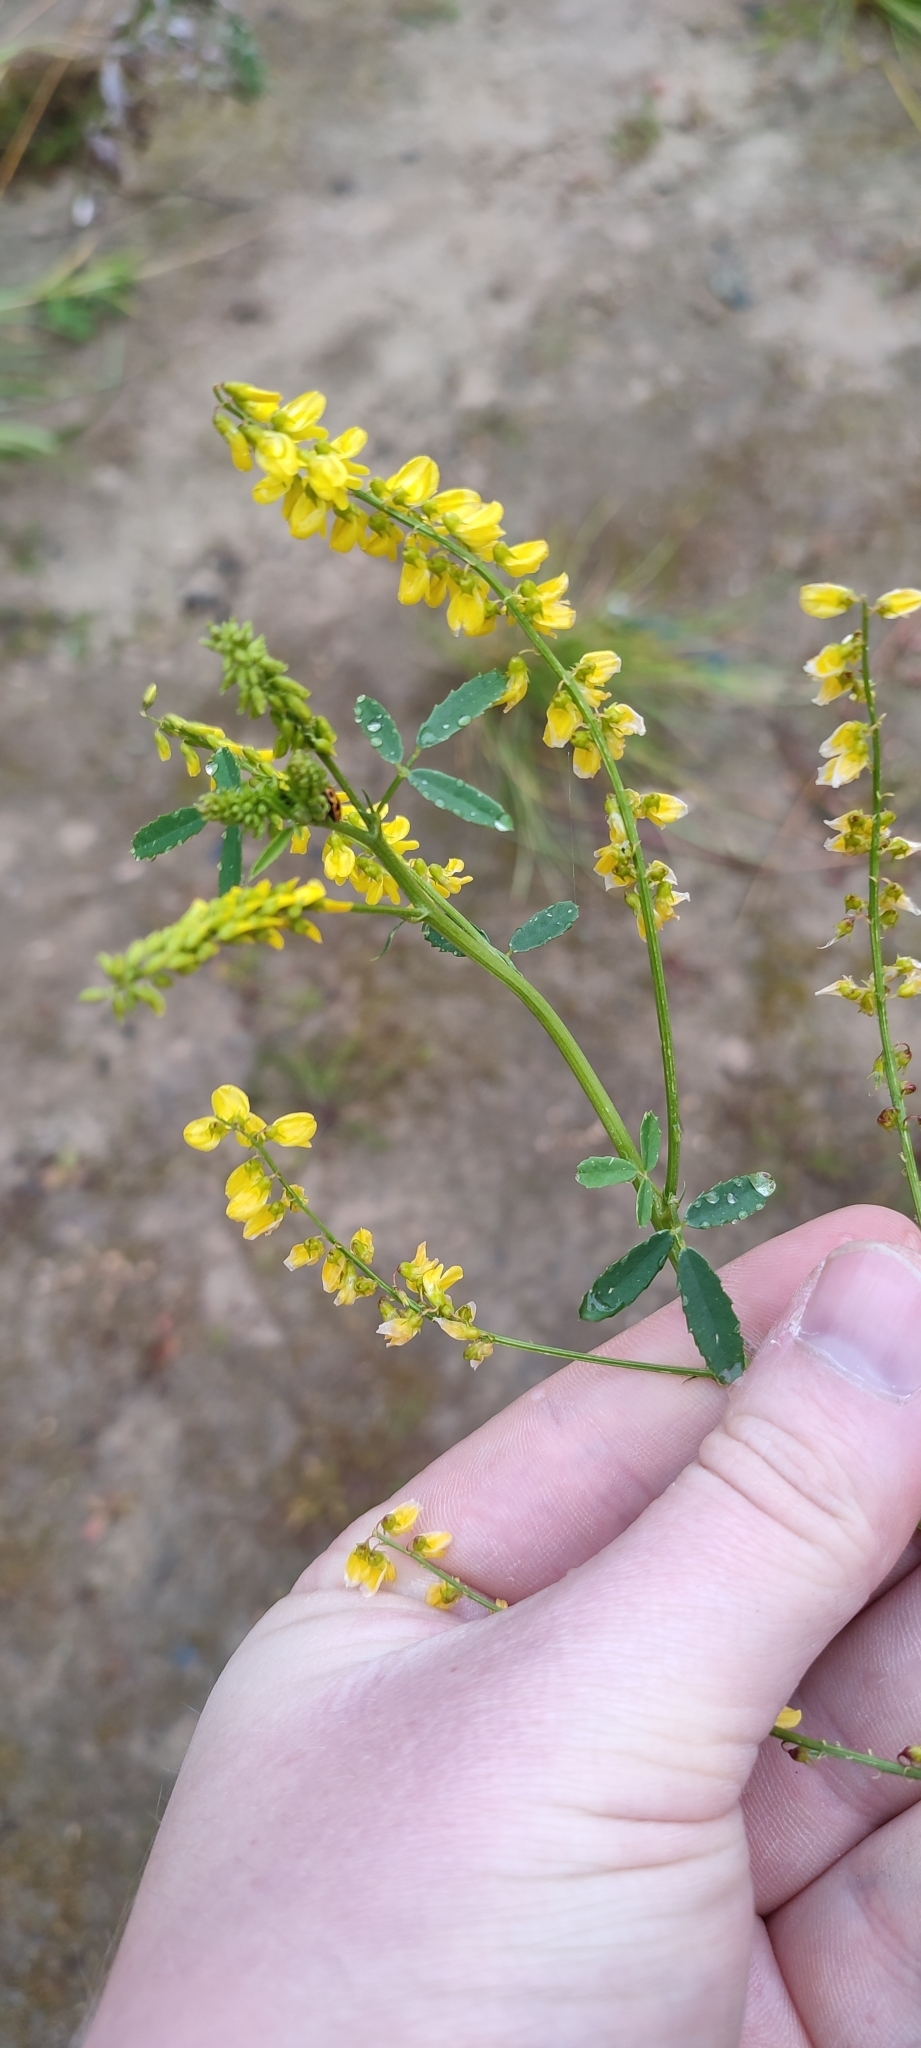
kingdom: Plantae
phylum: Tracheophyta
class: Magnoliopsida
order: Fabales
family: Fabaceae
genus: Melilotus
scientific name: Melilotus officinalis
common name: Sweetclover
